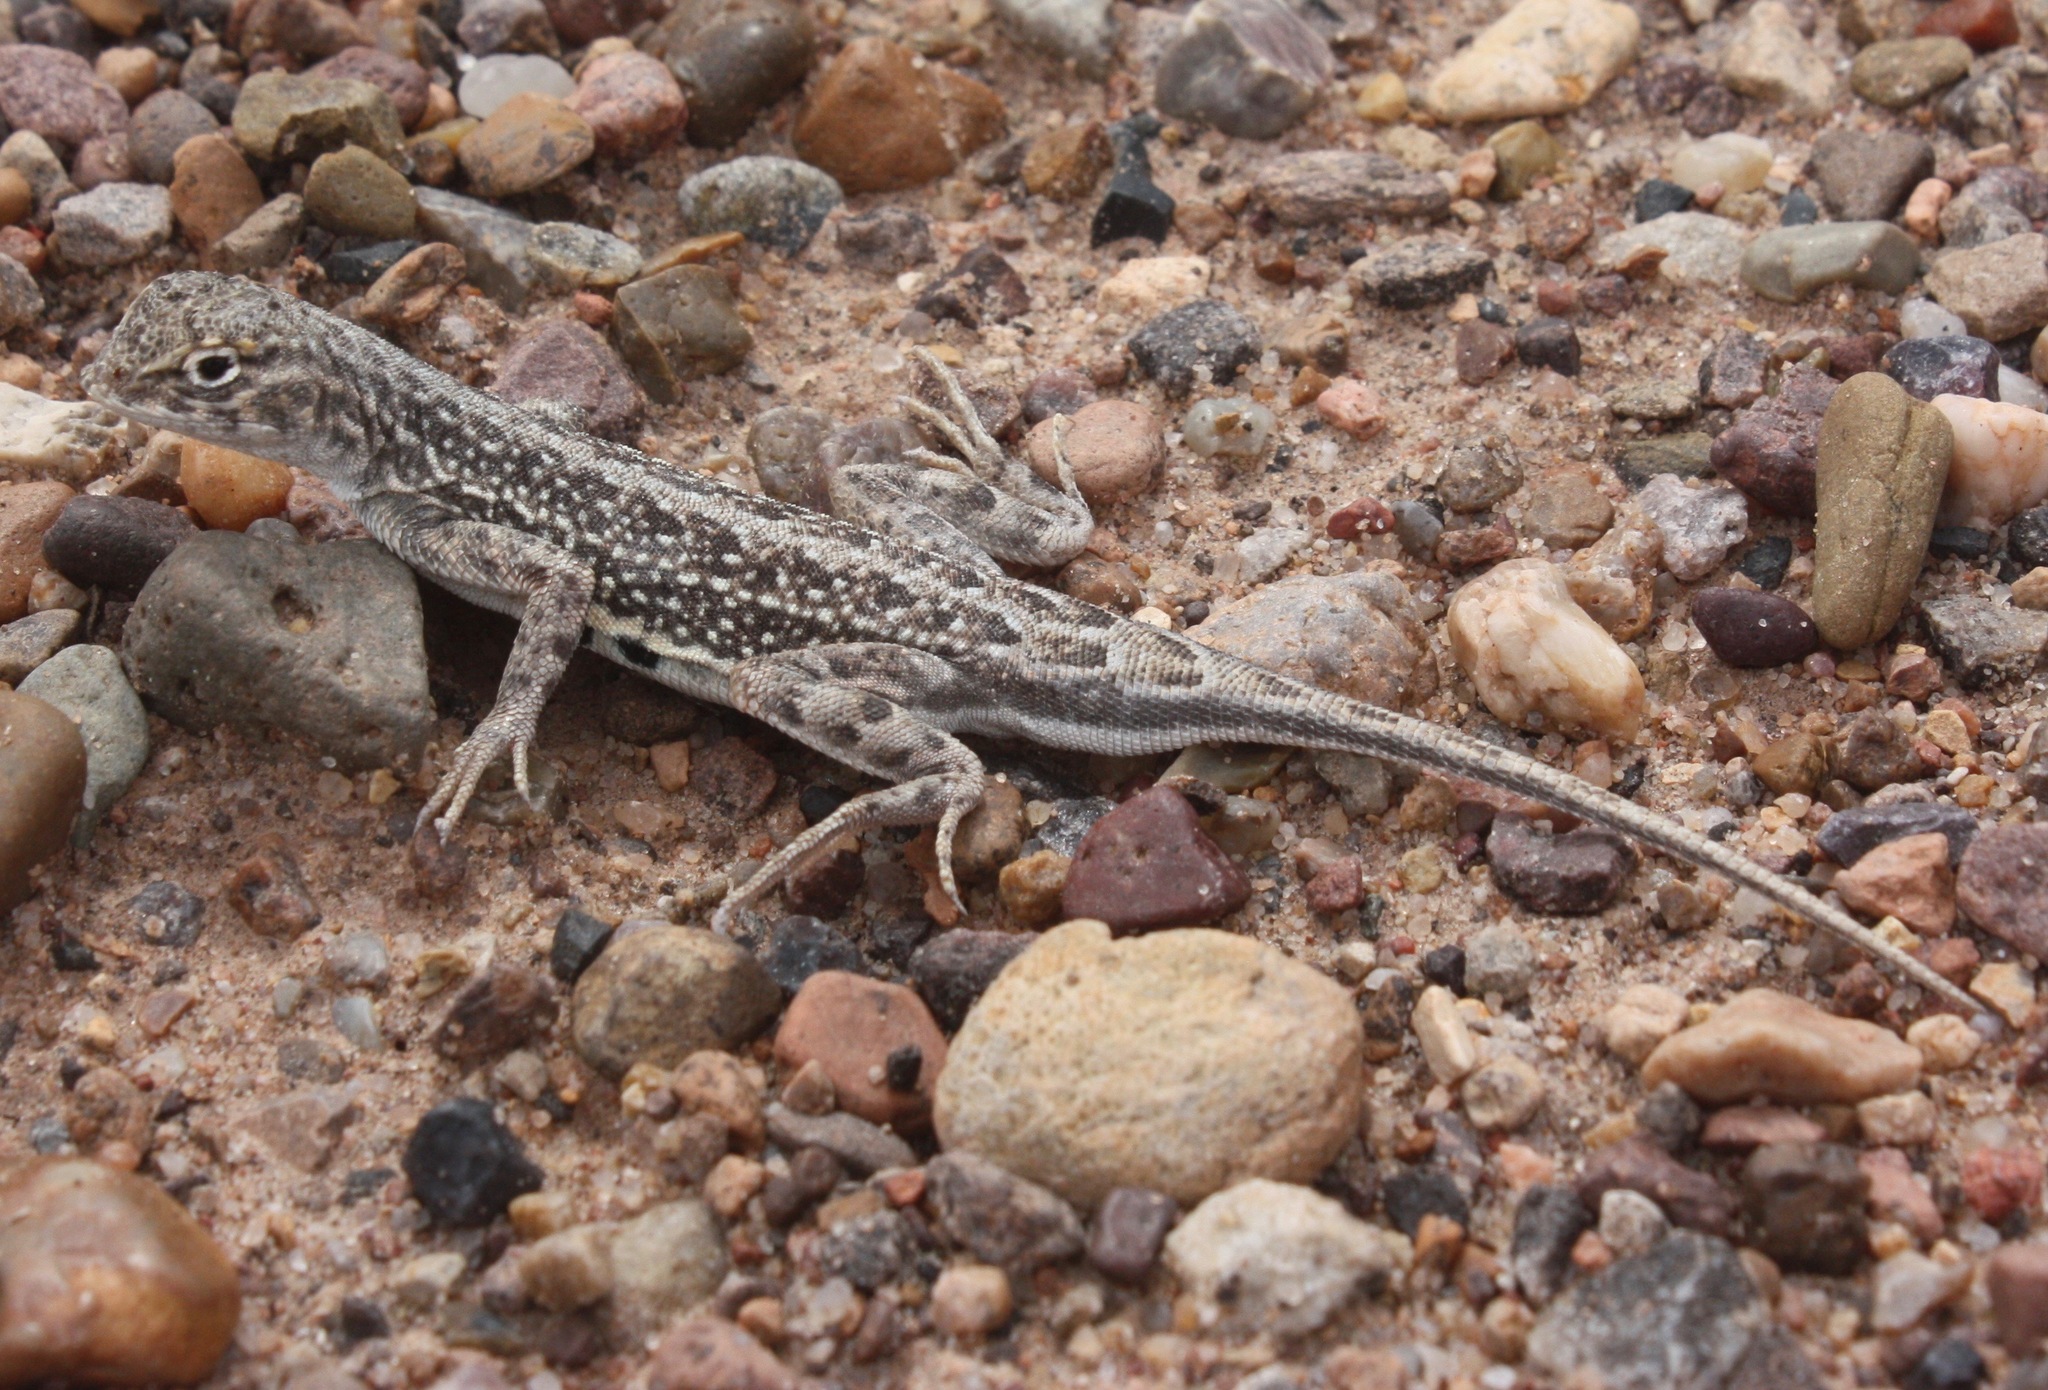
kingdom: Animalia
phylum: Chordata
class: Squamata
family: Phrynosomatidae
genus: Holbrookia
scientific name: Holbrookia maculata
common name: Lesser earless lizard
